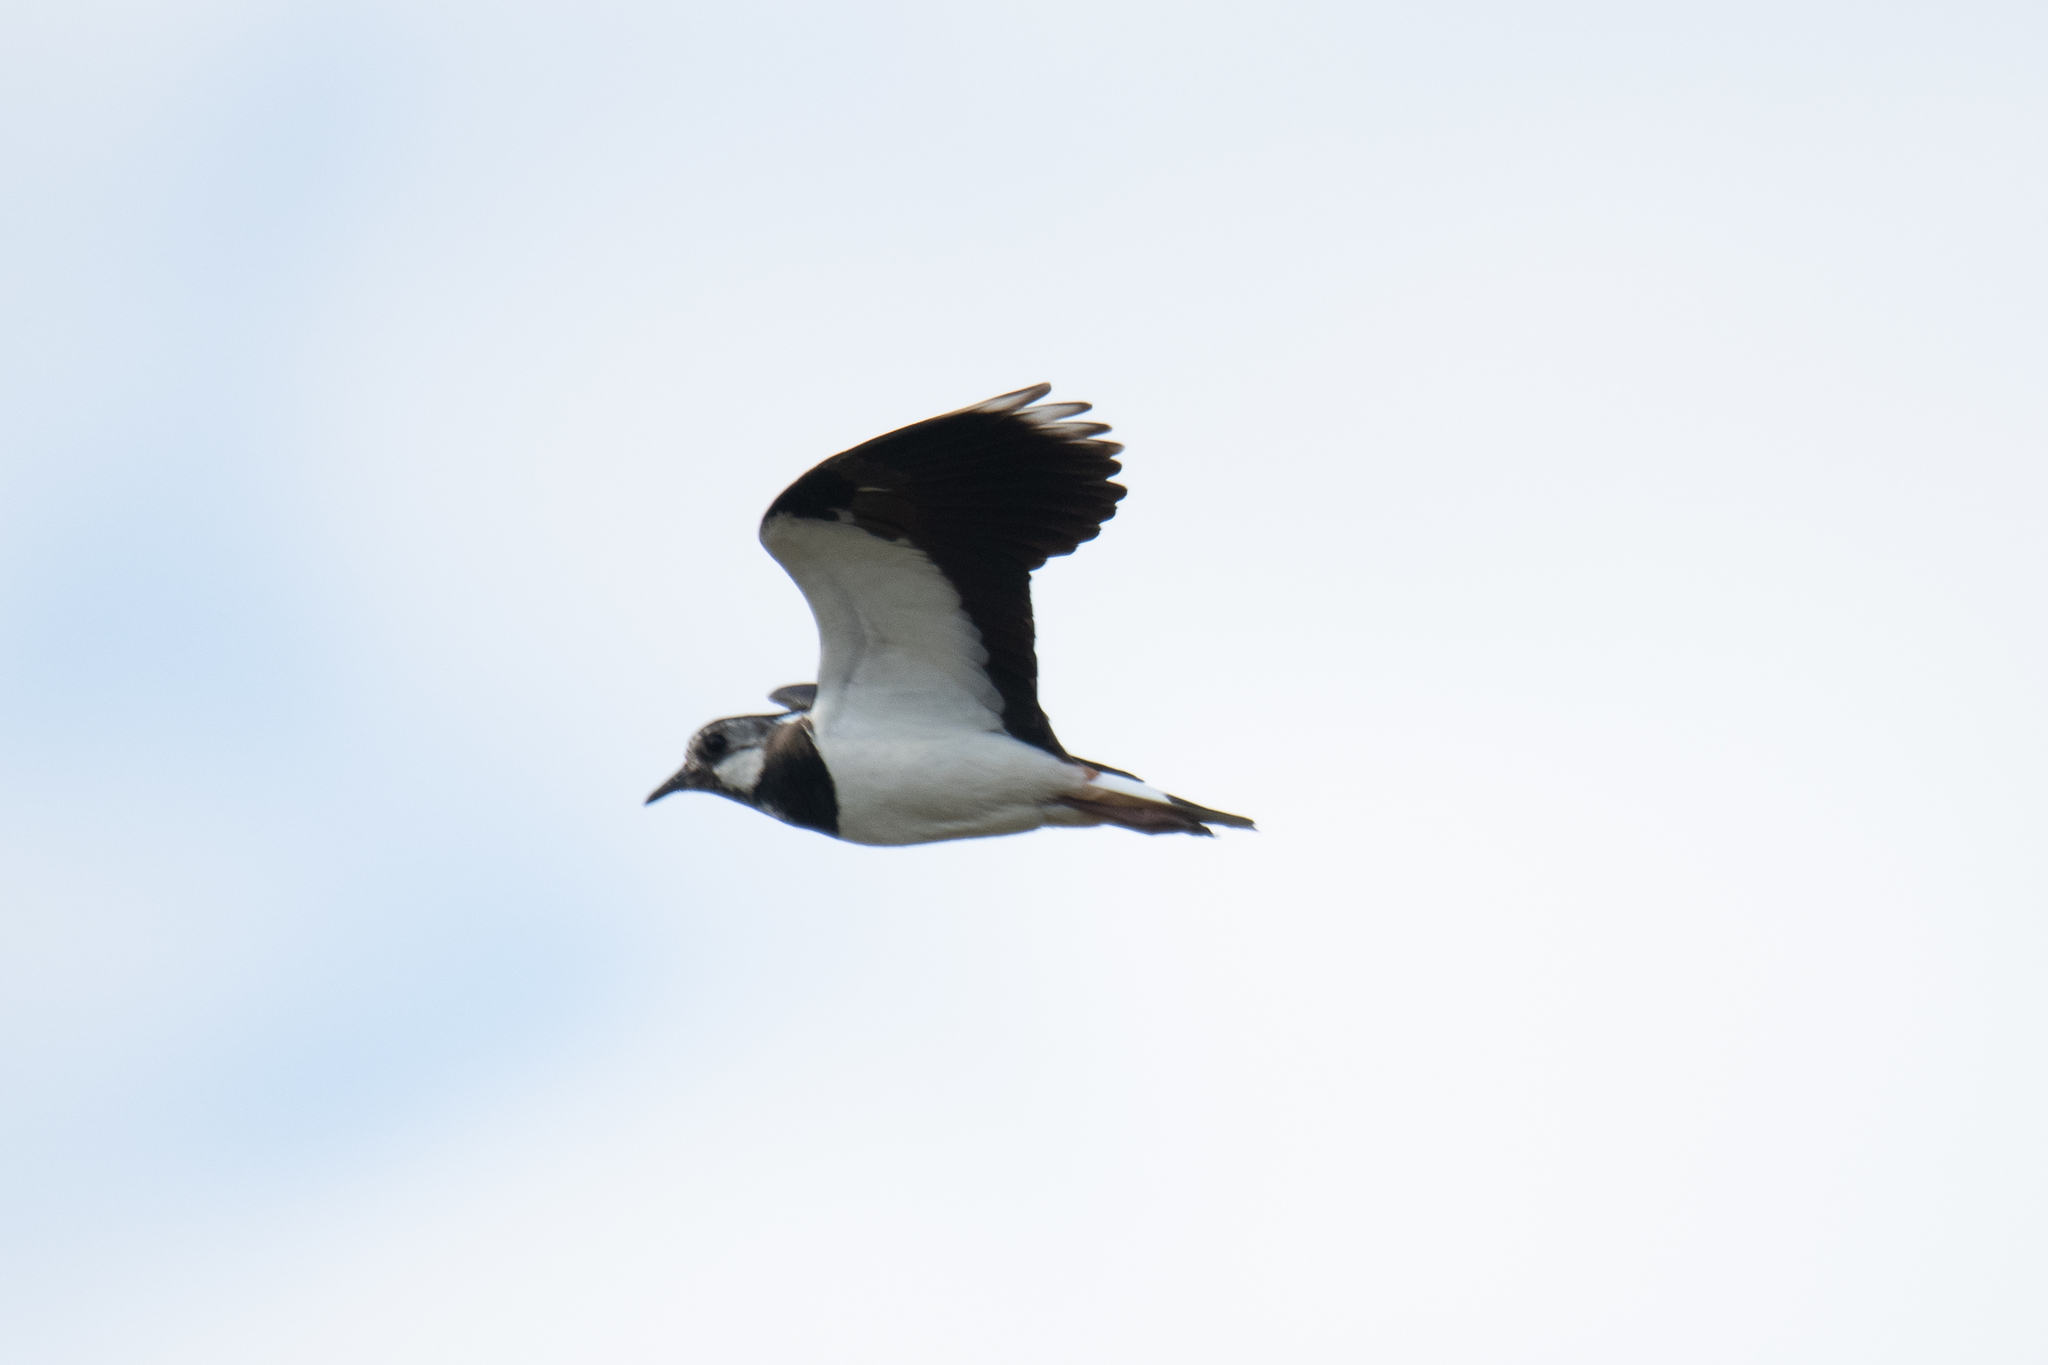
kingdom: Animalia
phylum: Chordata
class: Aves
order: Charadriiformes
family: Charadriidae
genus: Vanellus
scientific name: Vanellus vanellus
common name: Northern lapwing
